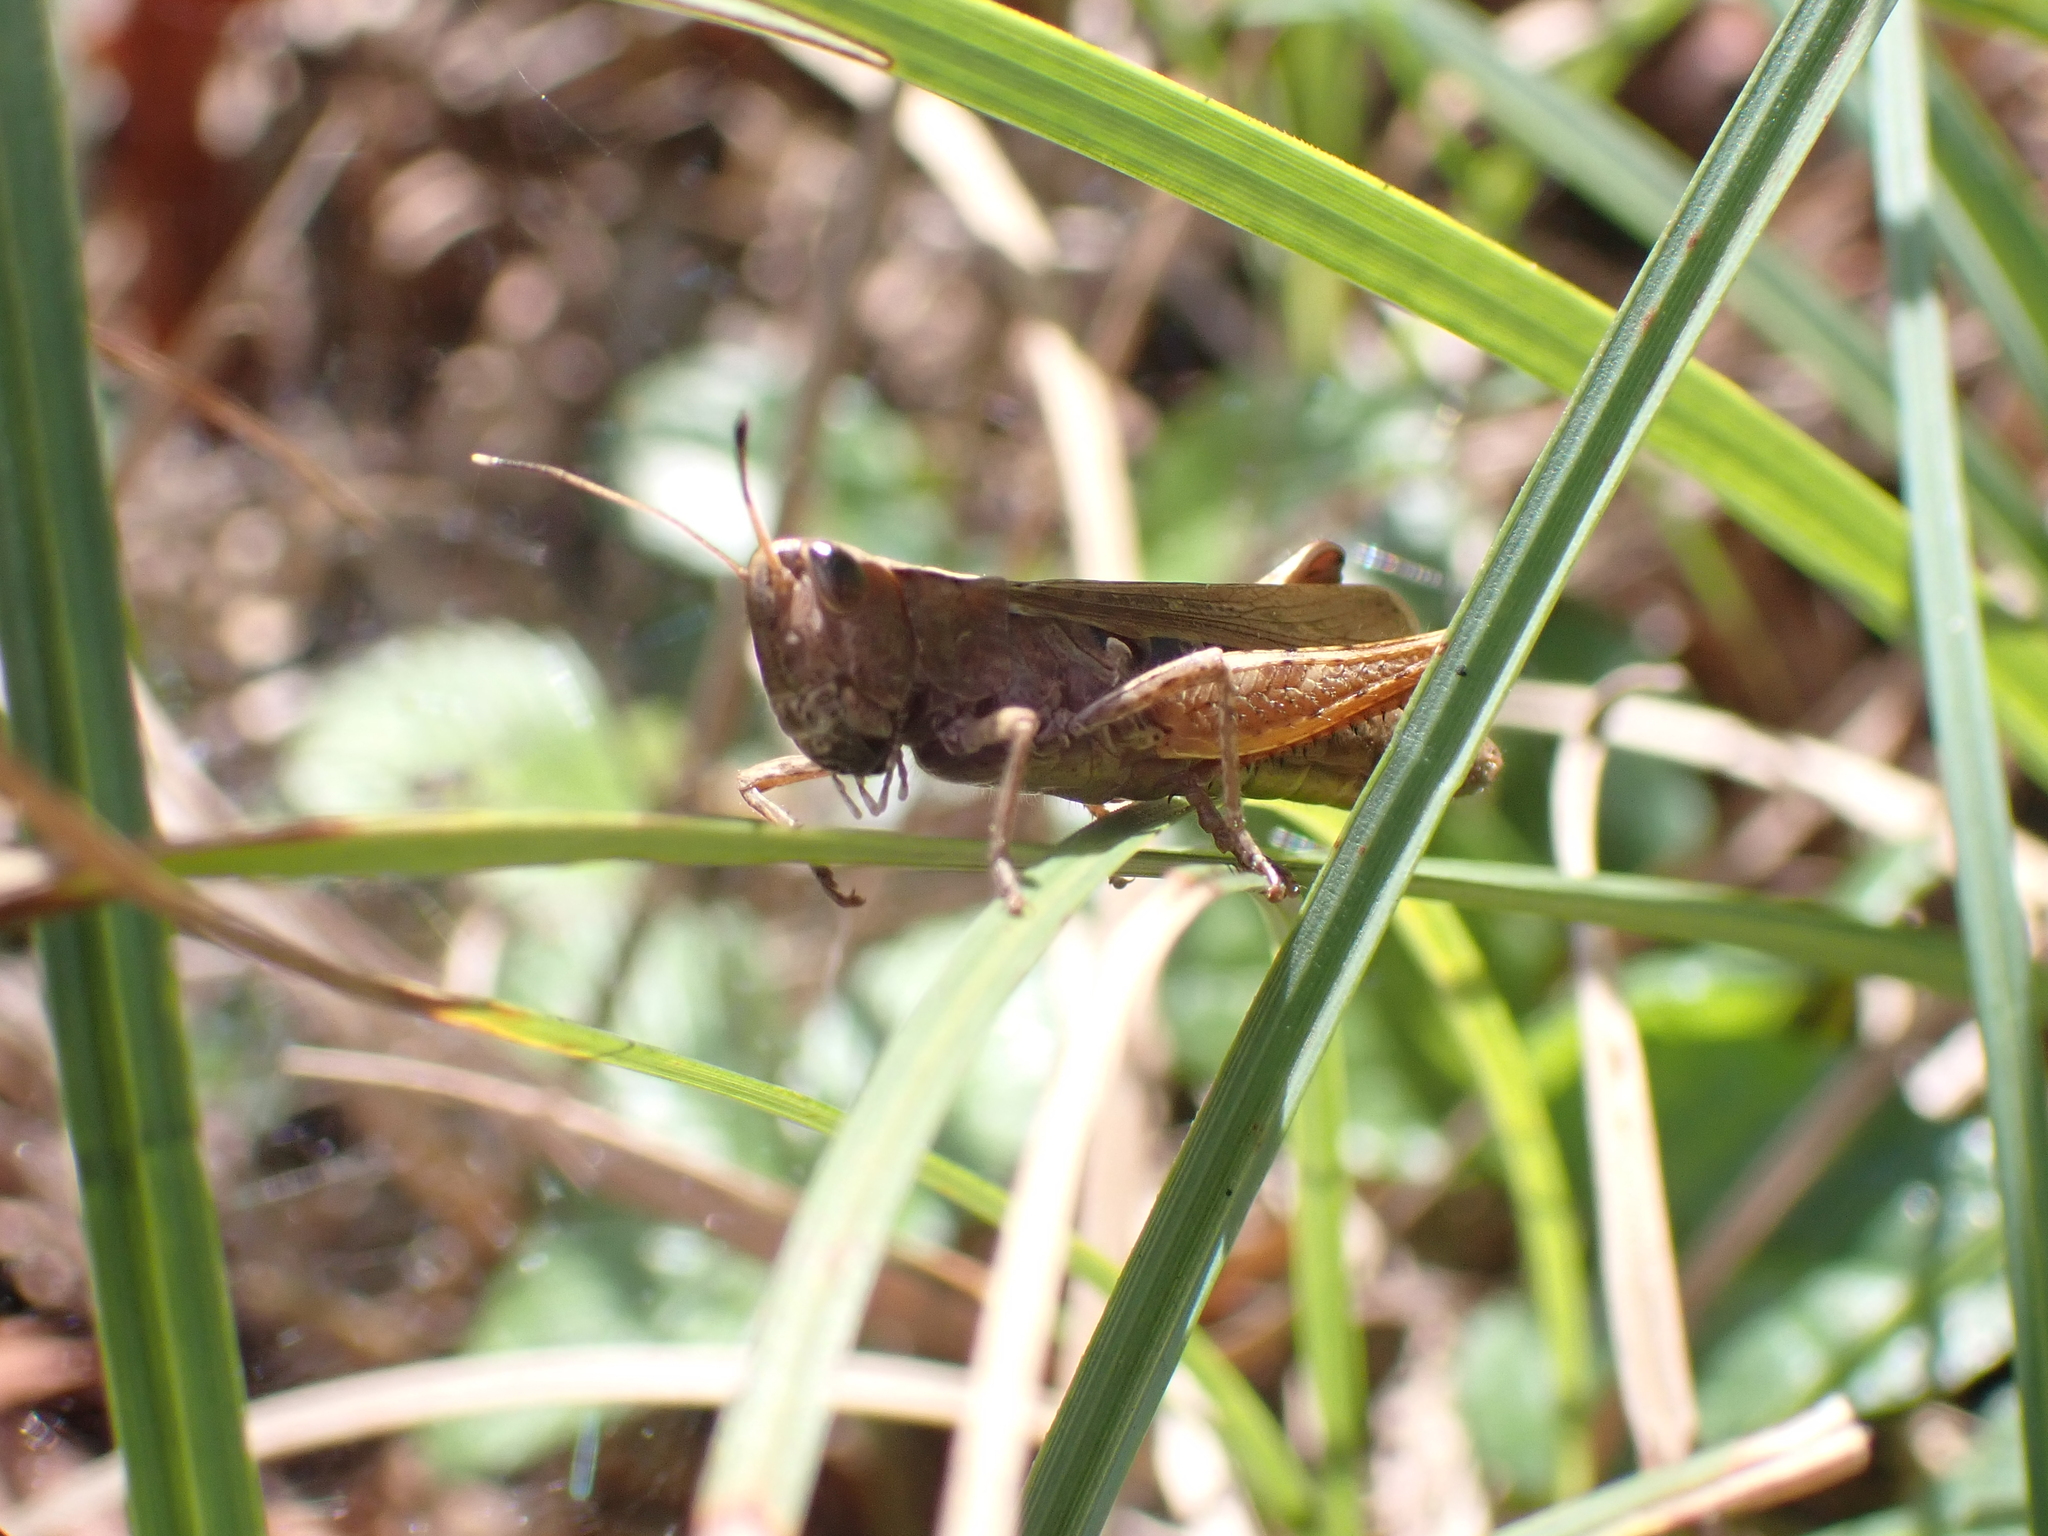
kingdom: Animalia
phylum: Arthropoda
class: Insecta
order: Orthoptera
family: Acrididae
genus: Gomphocerippus
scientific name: Gomphocerippus rufus
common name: Rufous grasshopper
